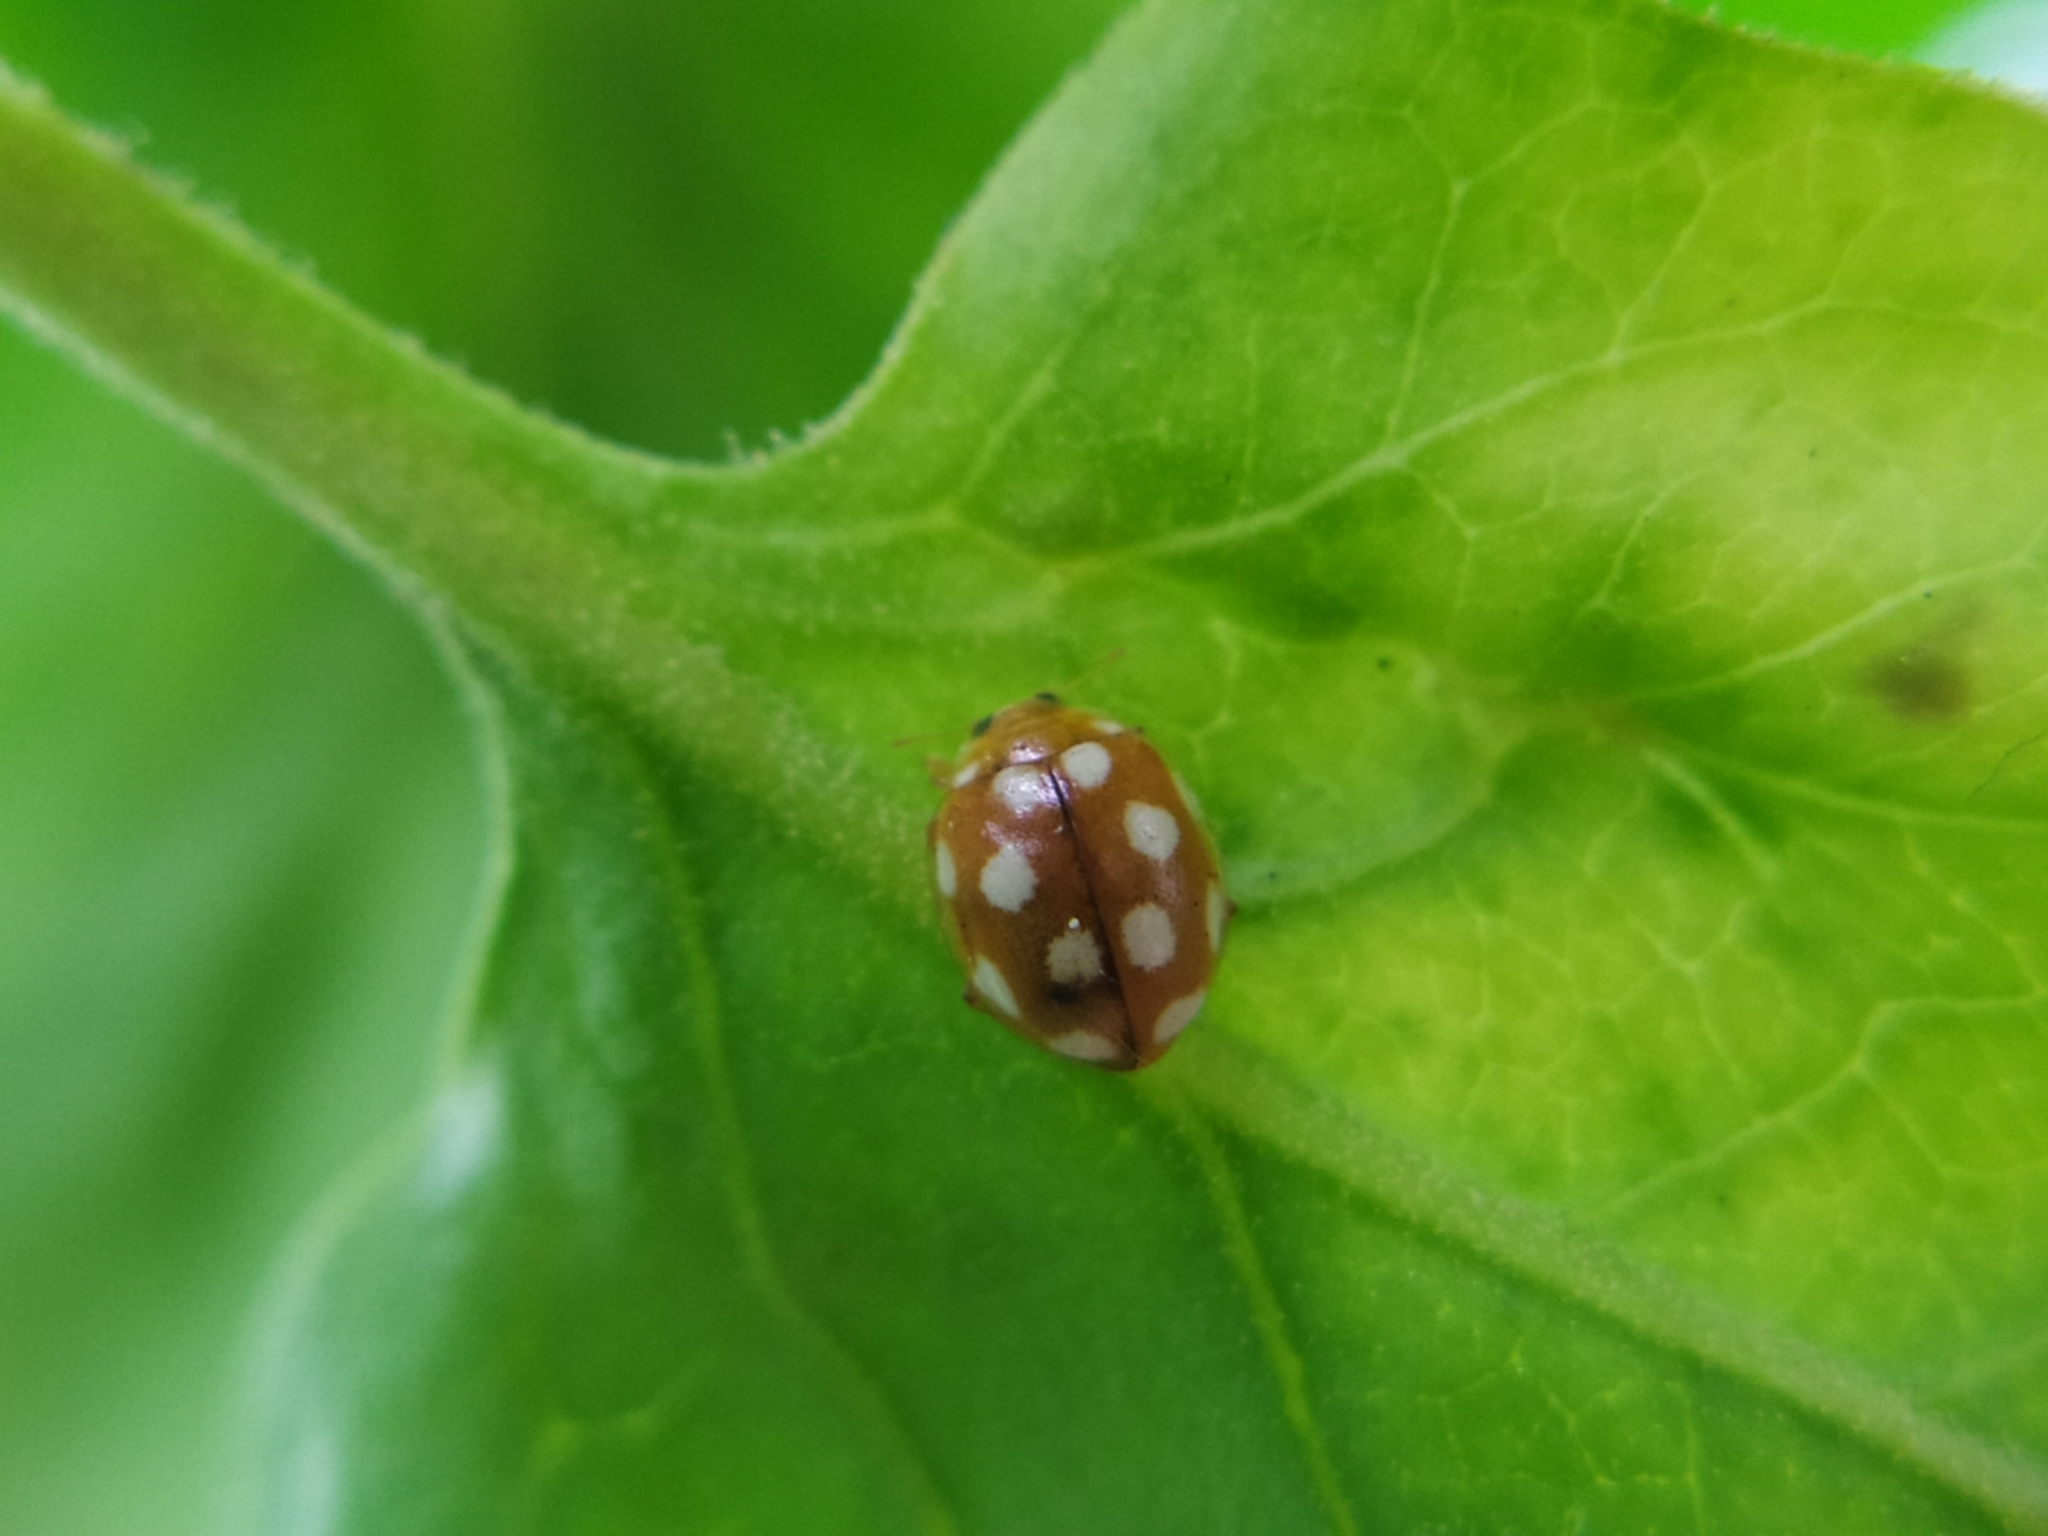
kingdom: Animalia
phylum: Arthropoda
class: Insecta
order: Coleoptera
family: Coccinellidae
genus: Vibidia
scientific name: Vibidia duodecimguttata
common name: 12-spot ladybird
